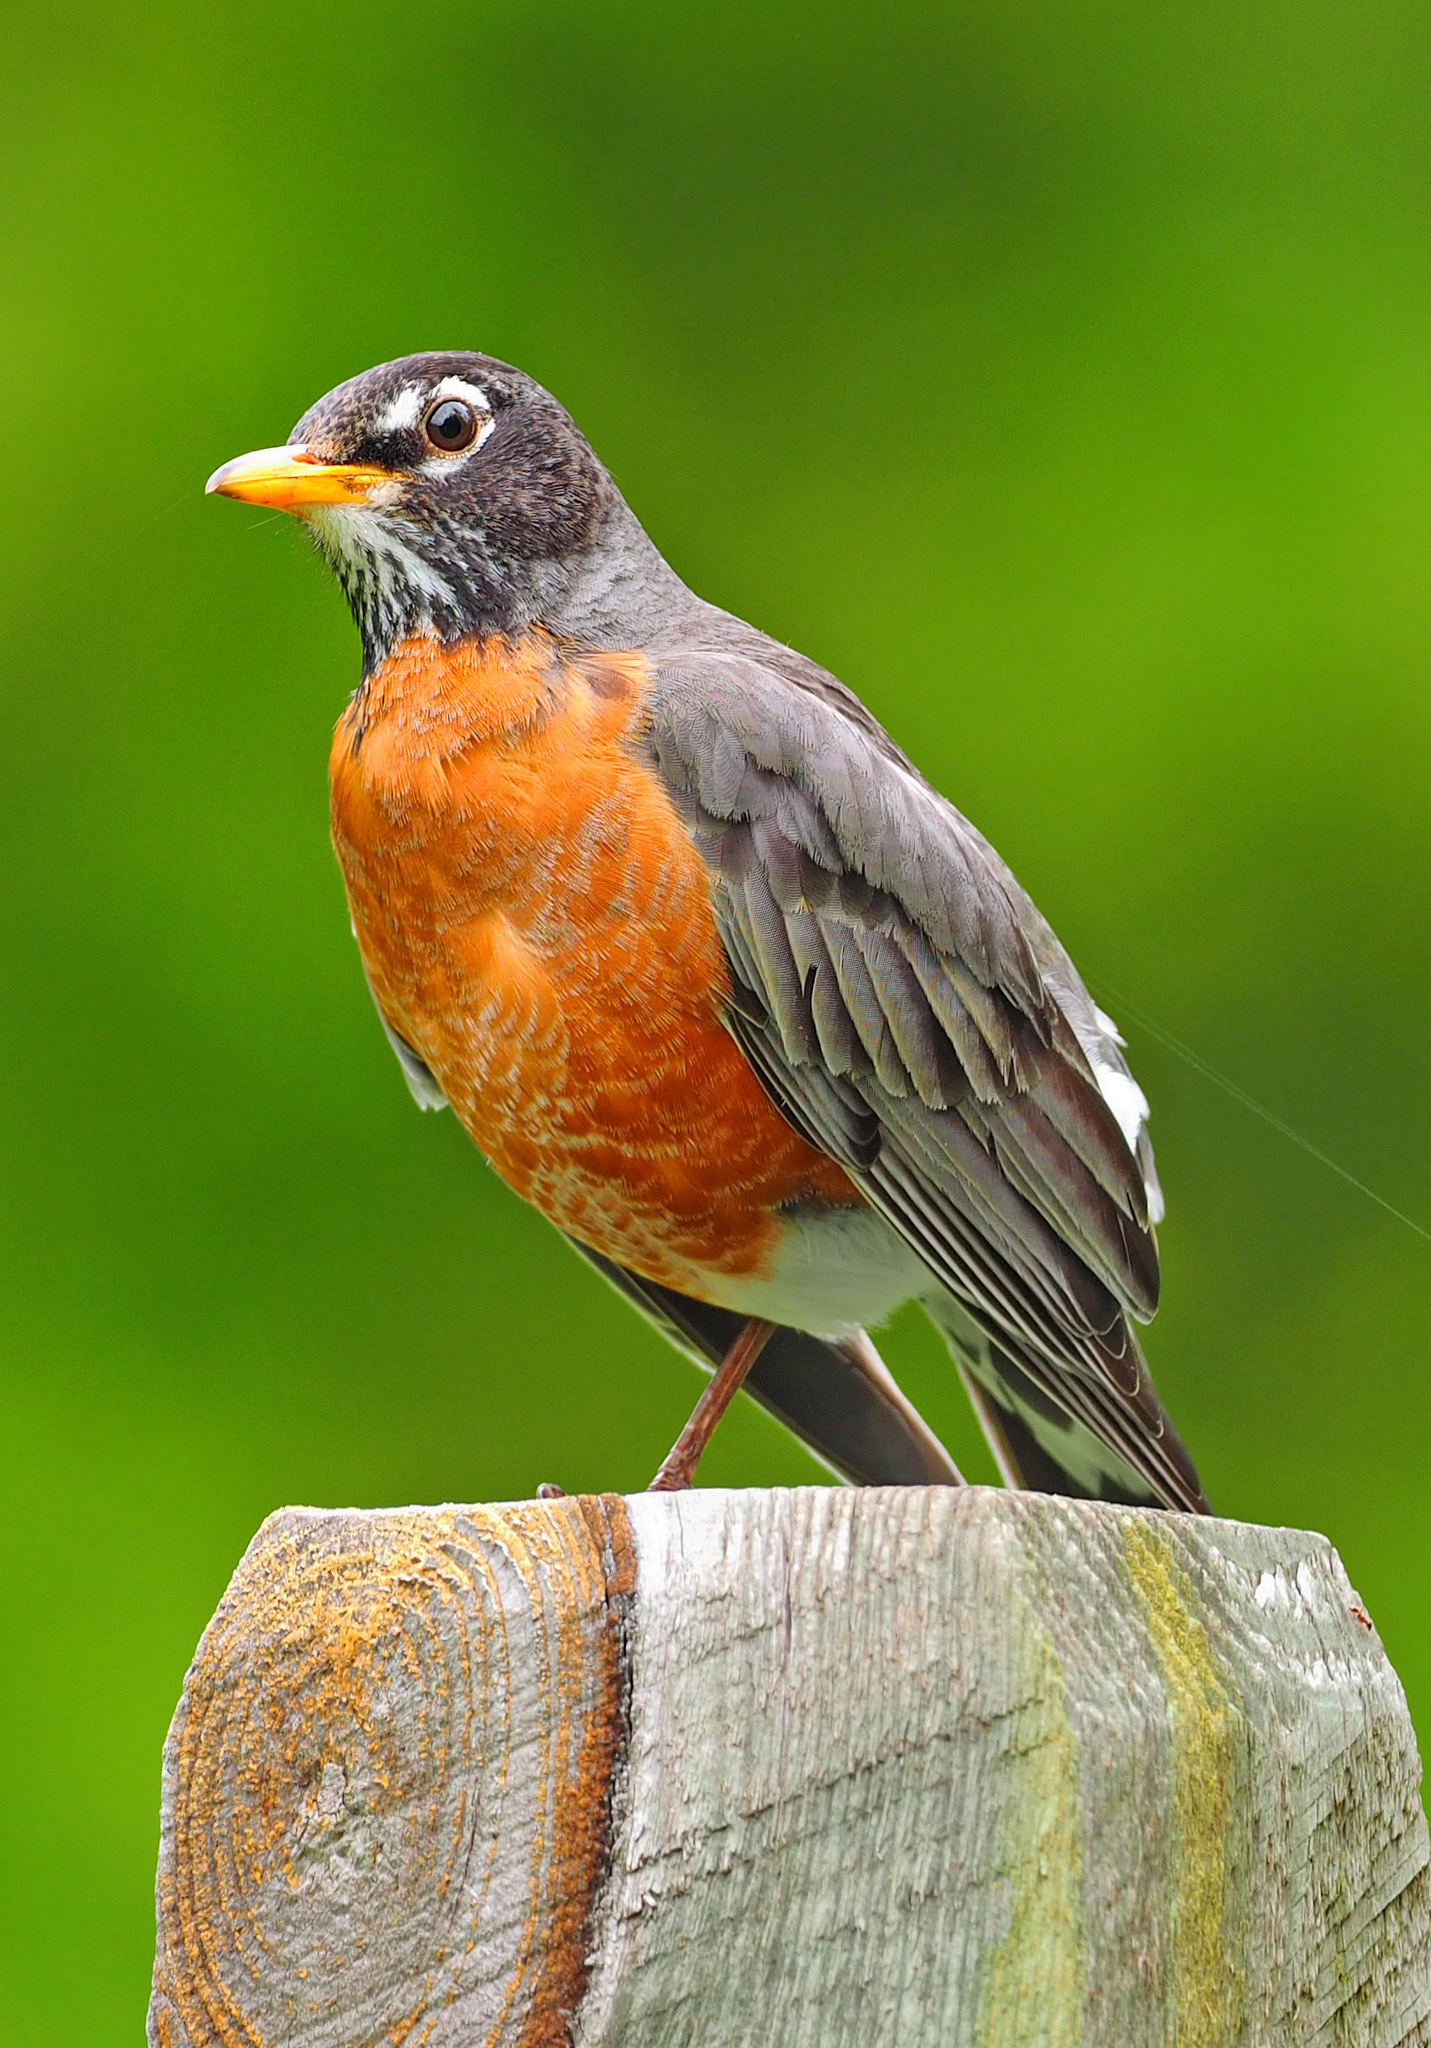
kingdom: Animalia
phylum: Chordata
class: Aves
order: Passeriformes
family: Turdidae
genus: Turdus
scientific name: Turdus migratorius
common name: American robin
